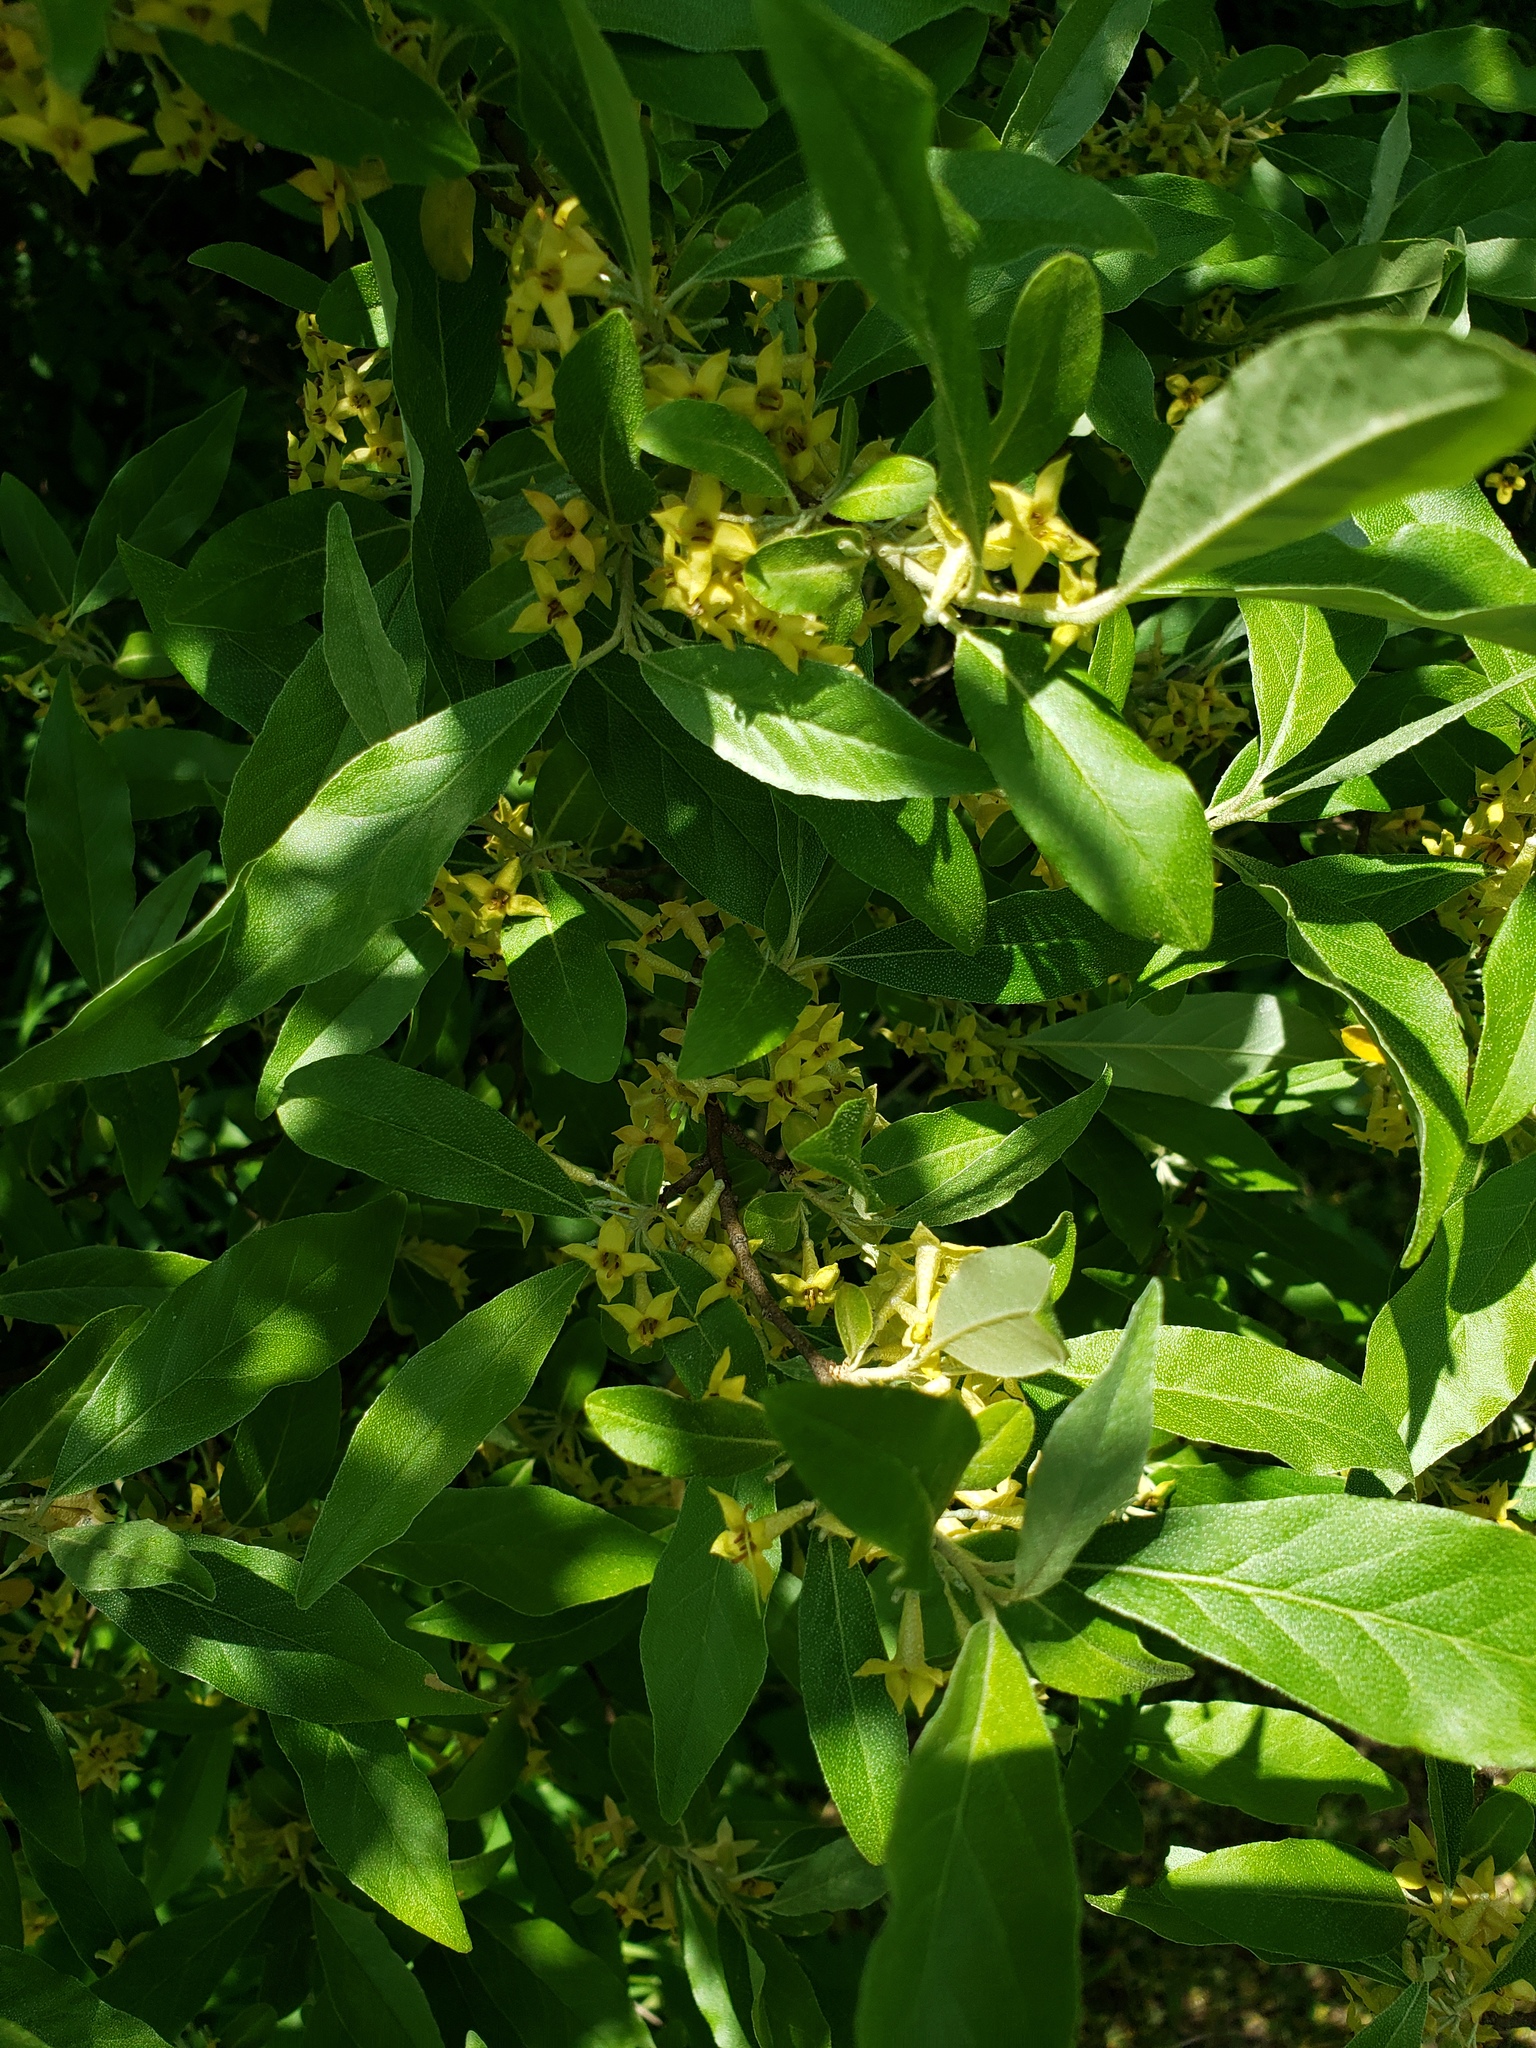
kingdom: Plantae
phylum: Tracheophyta
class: Magnoliopsida
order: Rosales
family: Elaeagnaceae
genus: Elaeagnus
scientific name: Elaeagnus umbellata
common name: Autumn olive
